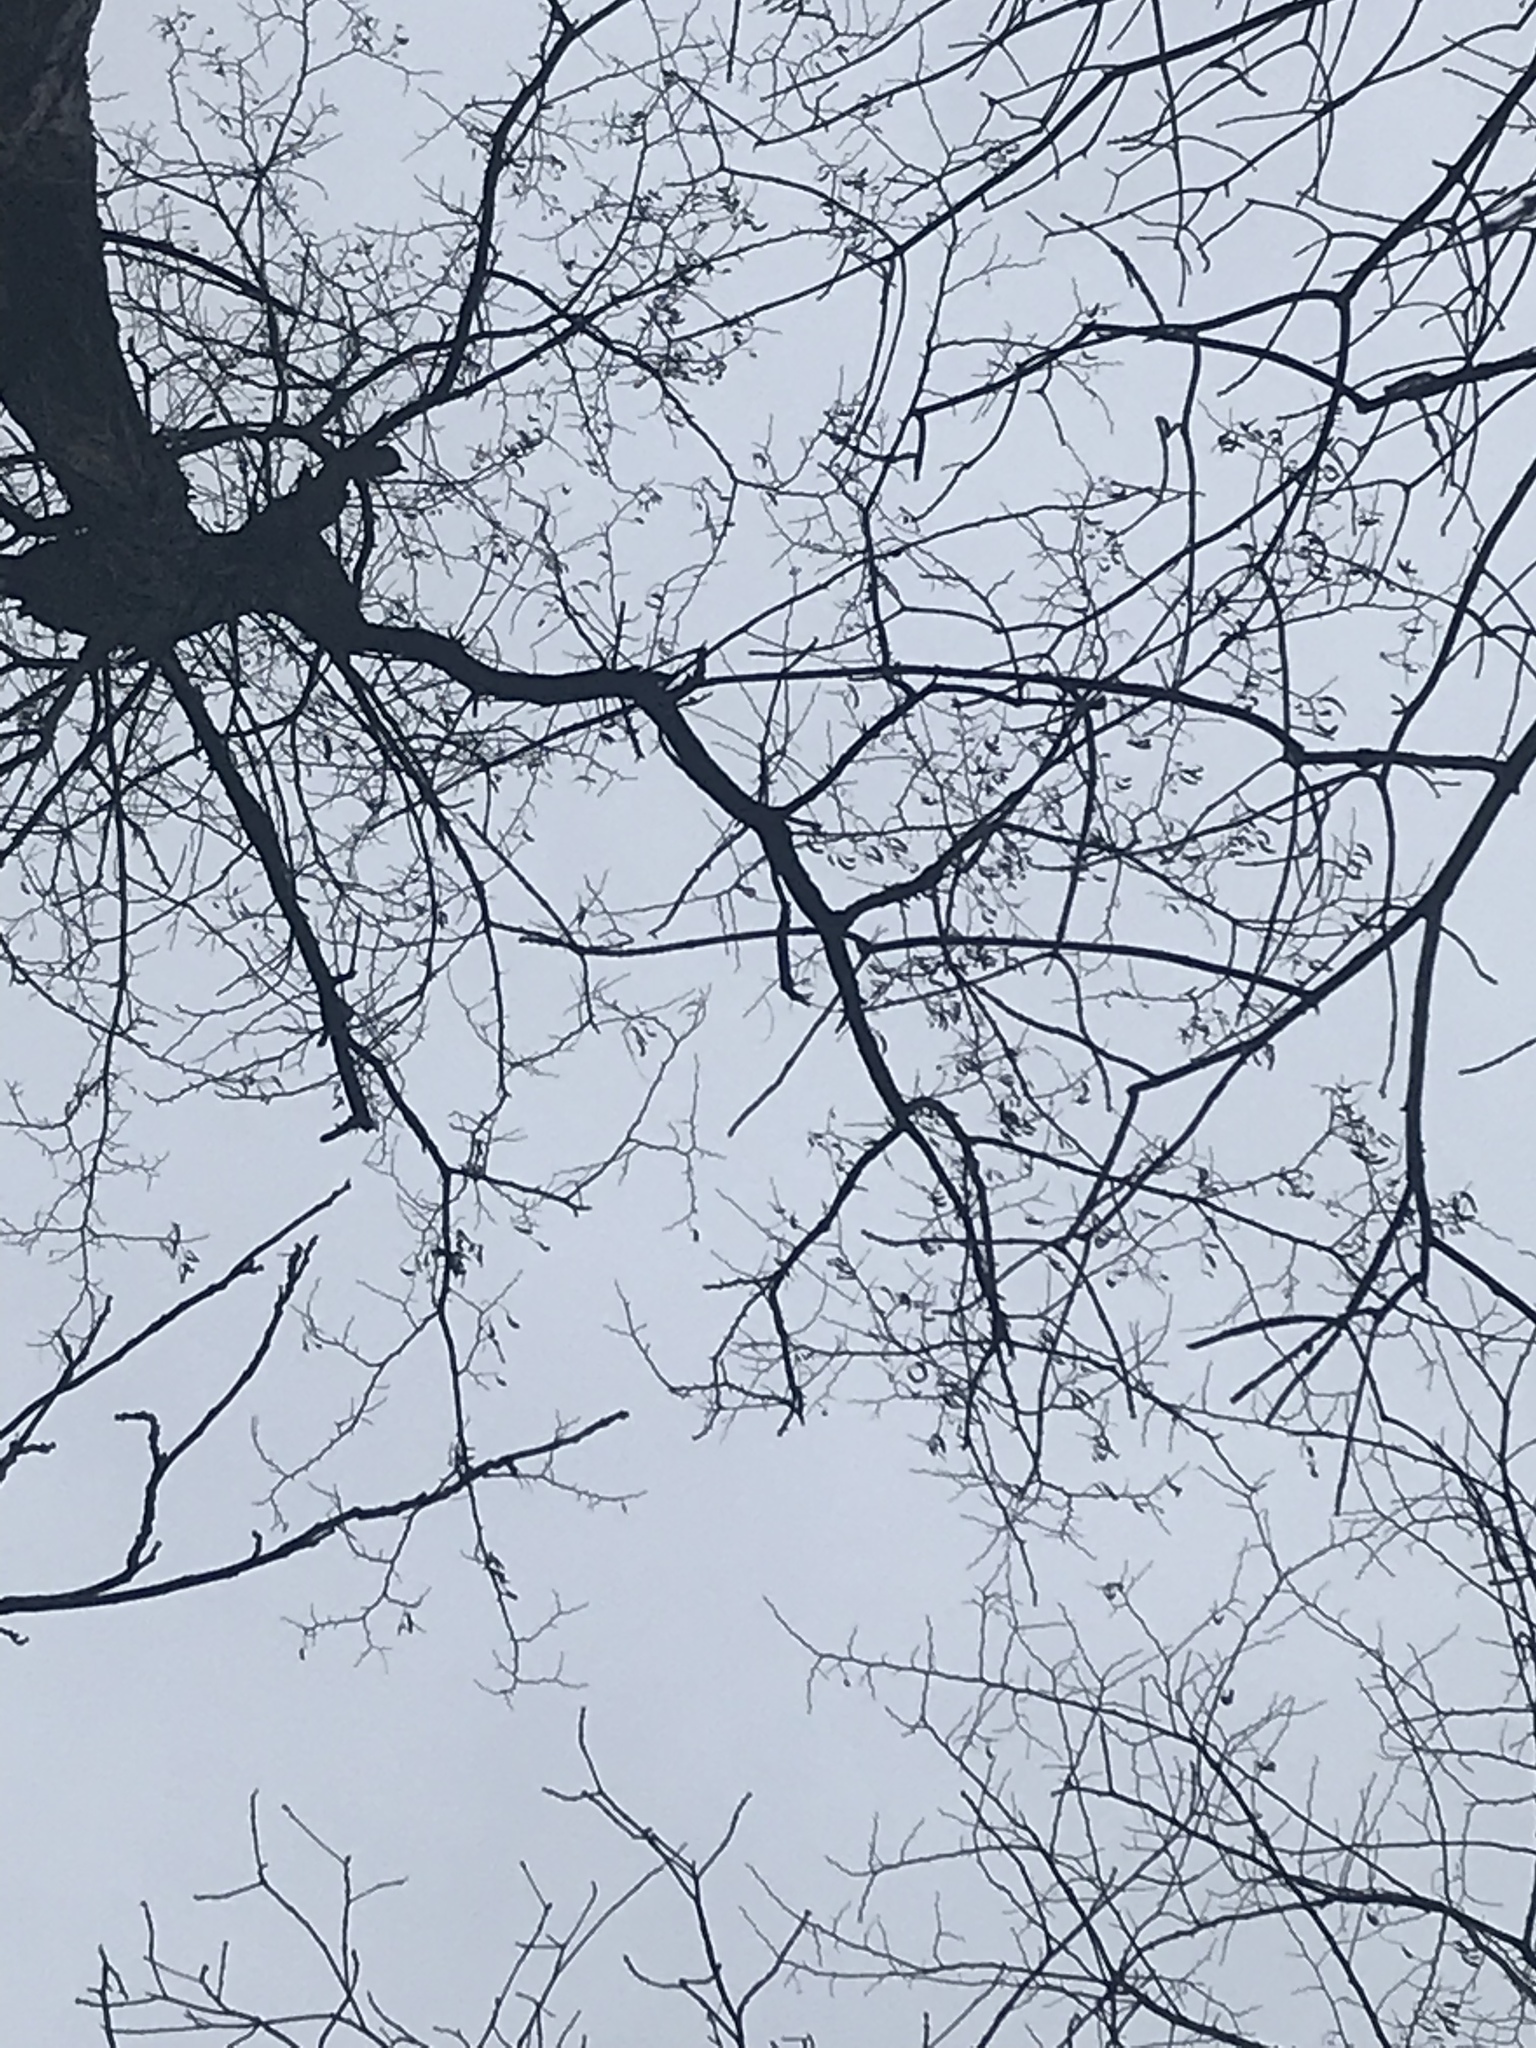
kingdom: Plantae
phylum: Tracheophyta
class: Magnoliopsida
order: Fabales
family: Fabaceae
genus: Robinia
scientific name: Robinia pseudoacacia
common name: Black locust
